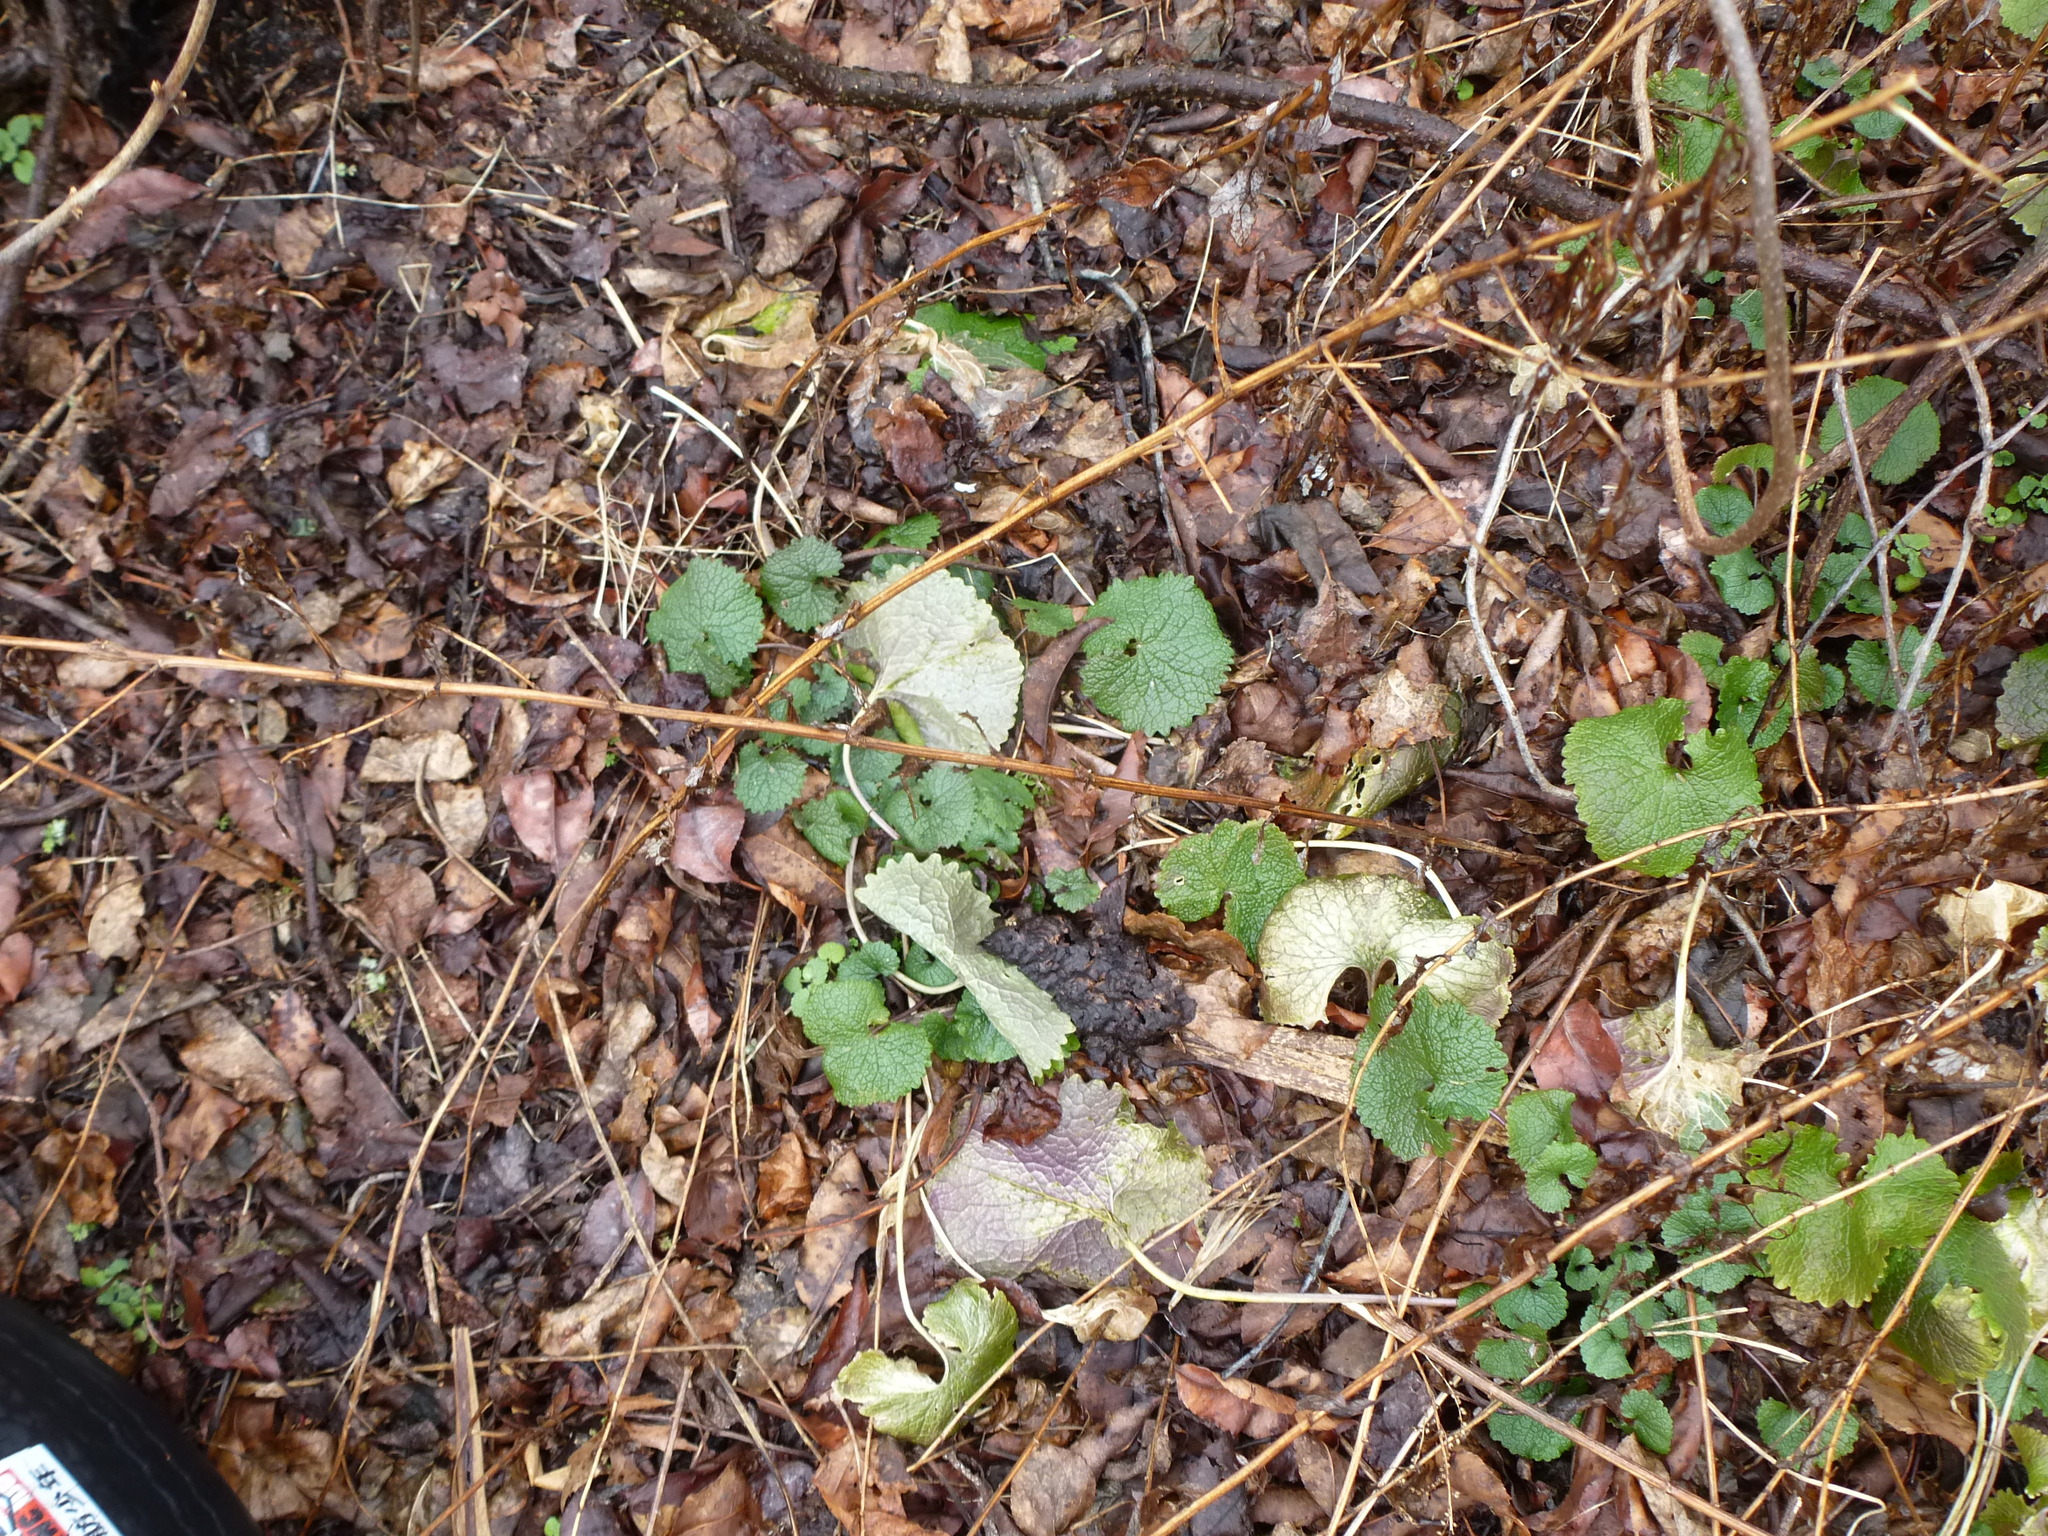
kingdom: Plantae
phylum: Tracheophyta
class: Magnoliopsida
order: Brassicales
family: Brassicaceae
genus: Alliaria
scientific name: Alliaria petiolata
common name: Garlic mustard
